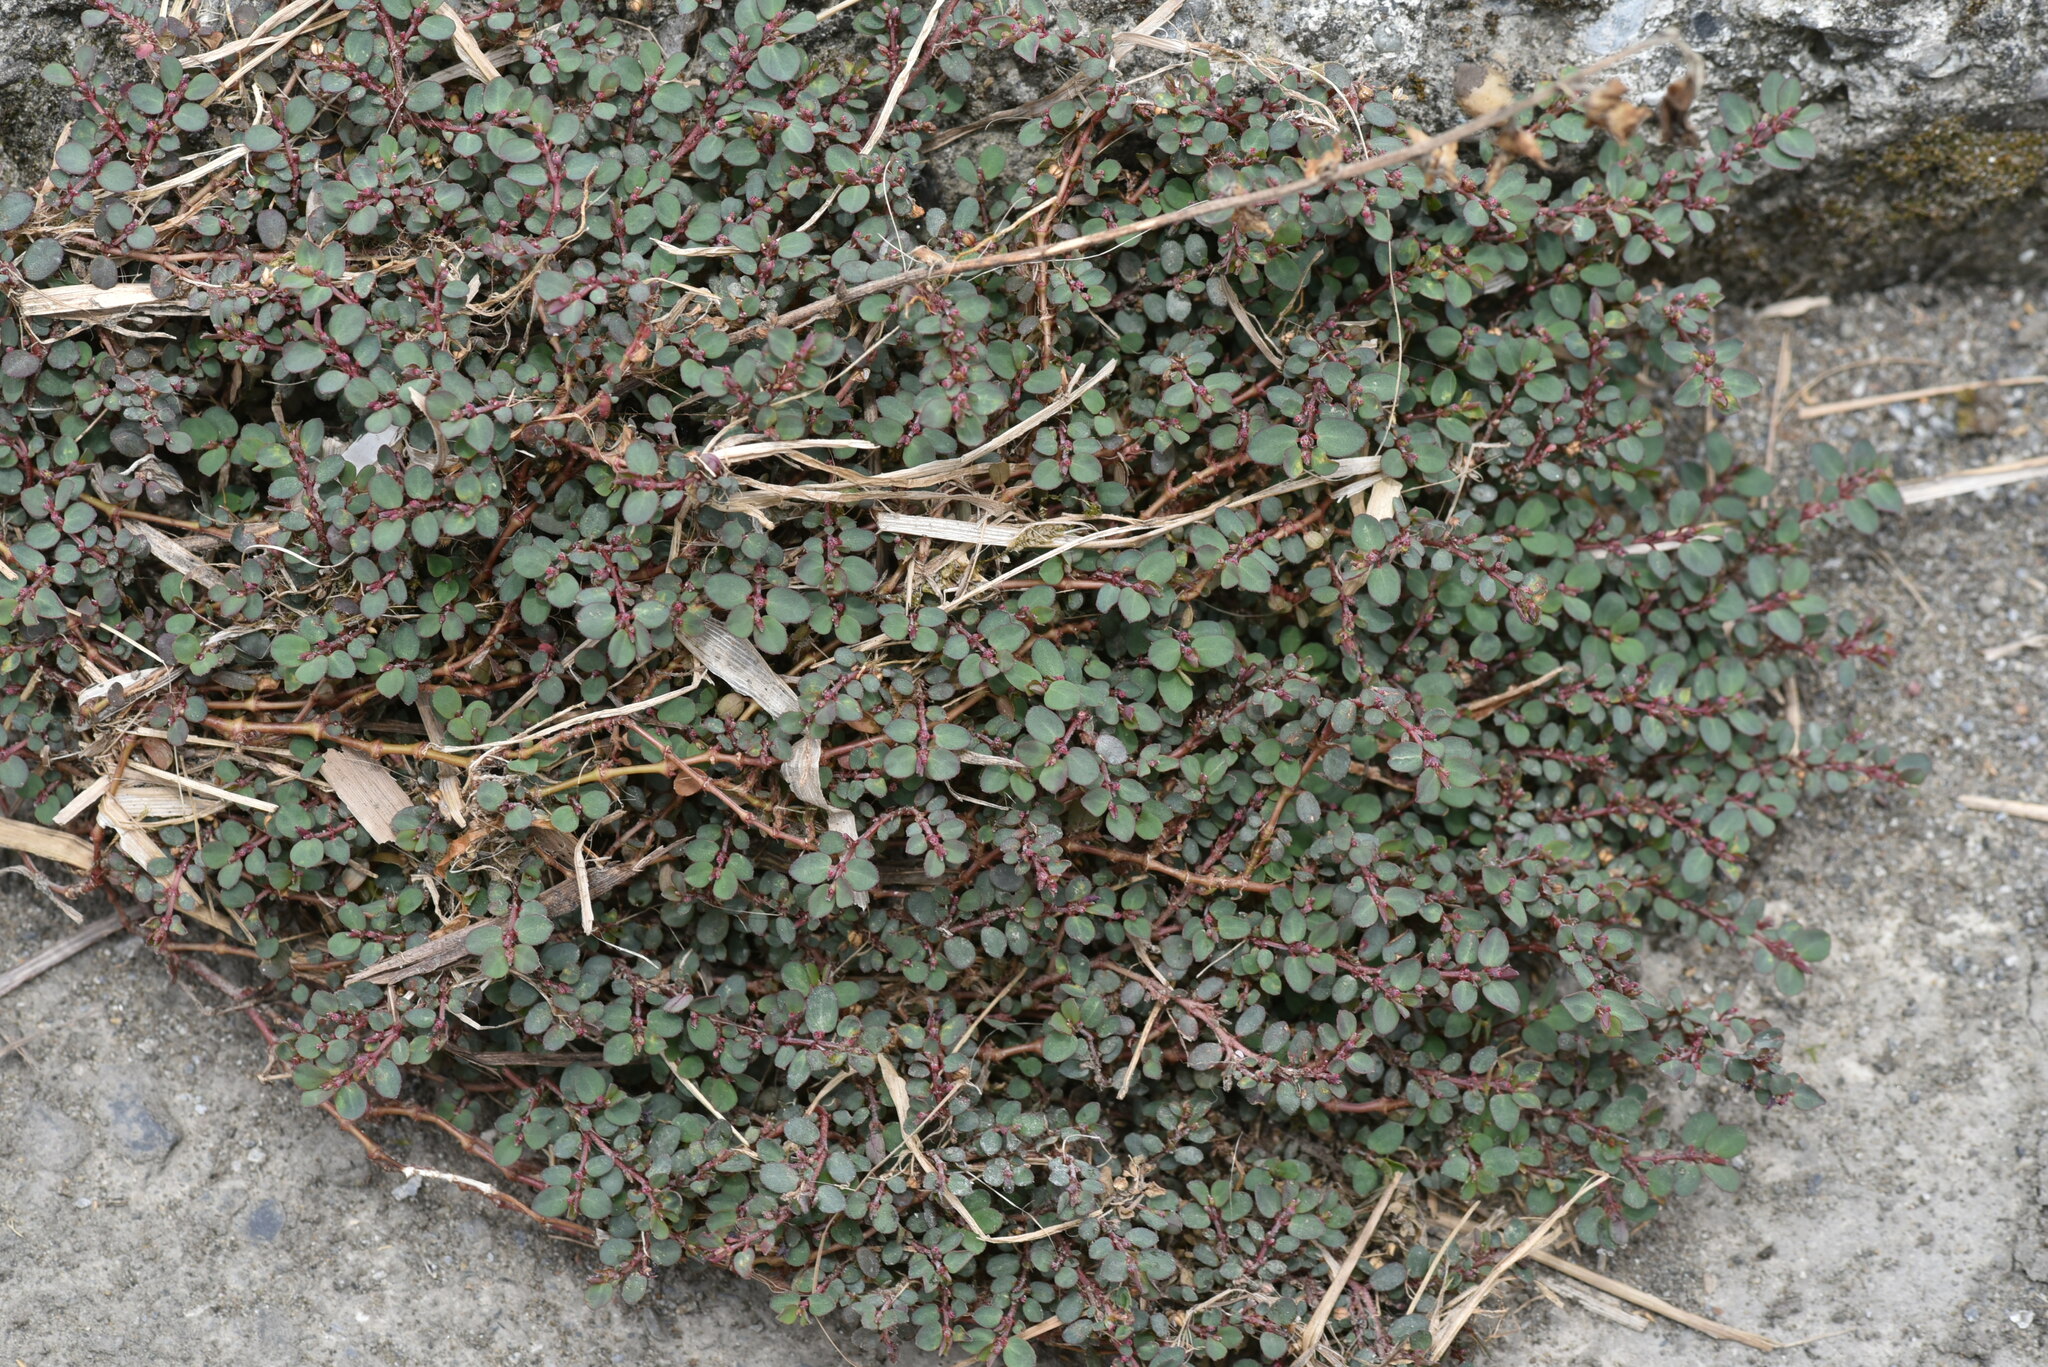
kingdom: Plantae
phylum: Tracheophyta
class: Magnoliopsida
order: Malpighiales
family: Euphorbiaceae
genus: Euphorbia
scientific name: Euphorbia prostrata
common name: Prostrate sandmat
